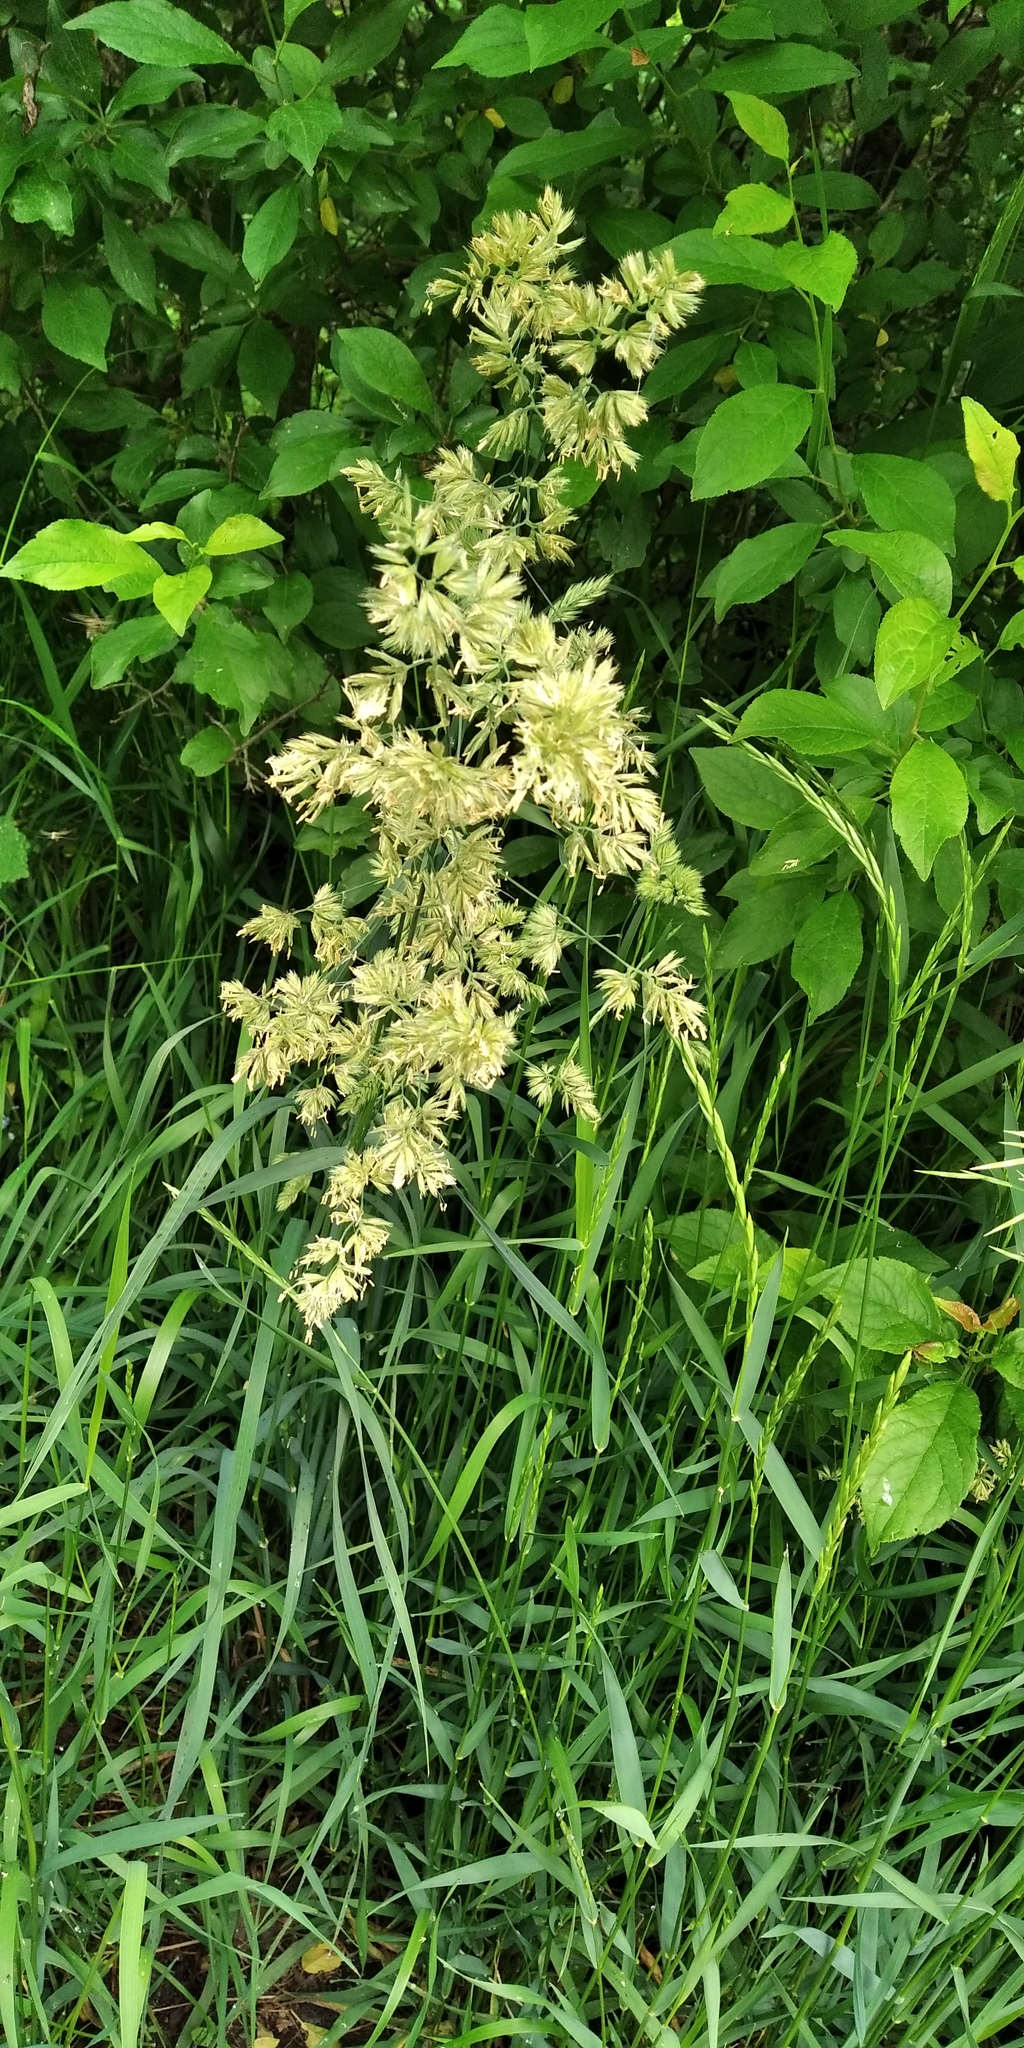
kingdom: Plantae
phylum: Tracheophyta
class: Liliopsida
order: Poales
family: Poaceae
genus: Dactylis
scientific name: Dactylis glomerata
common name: Orchardgrass
